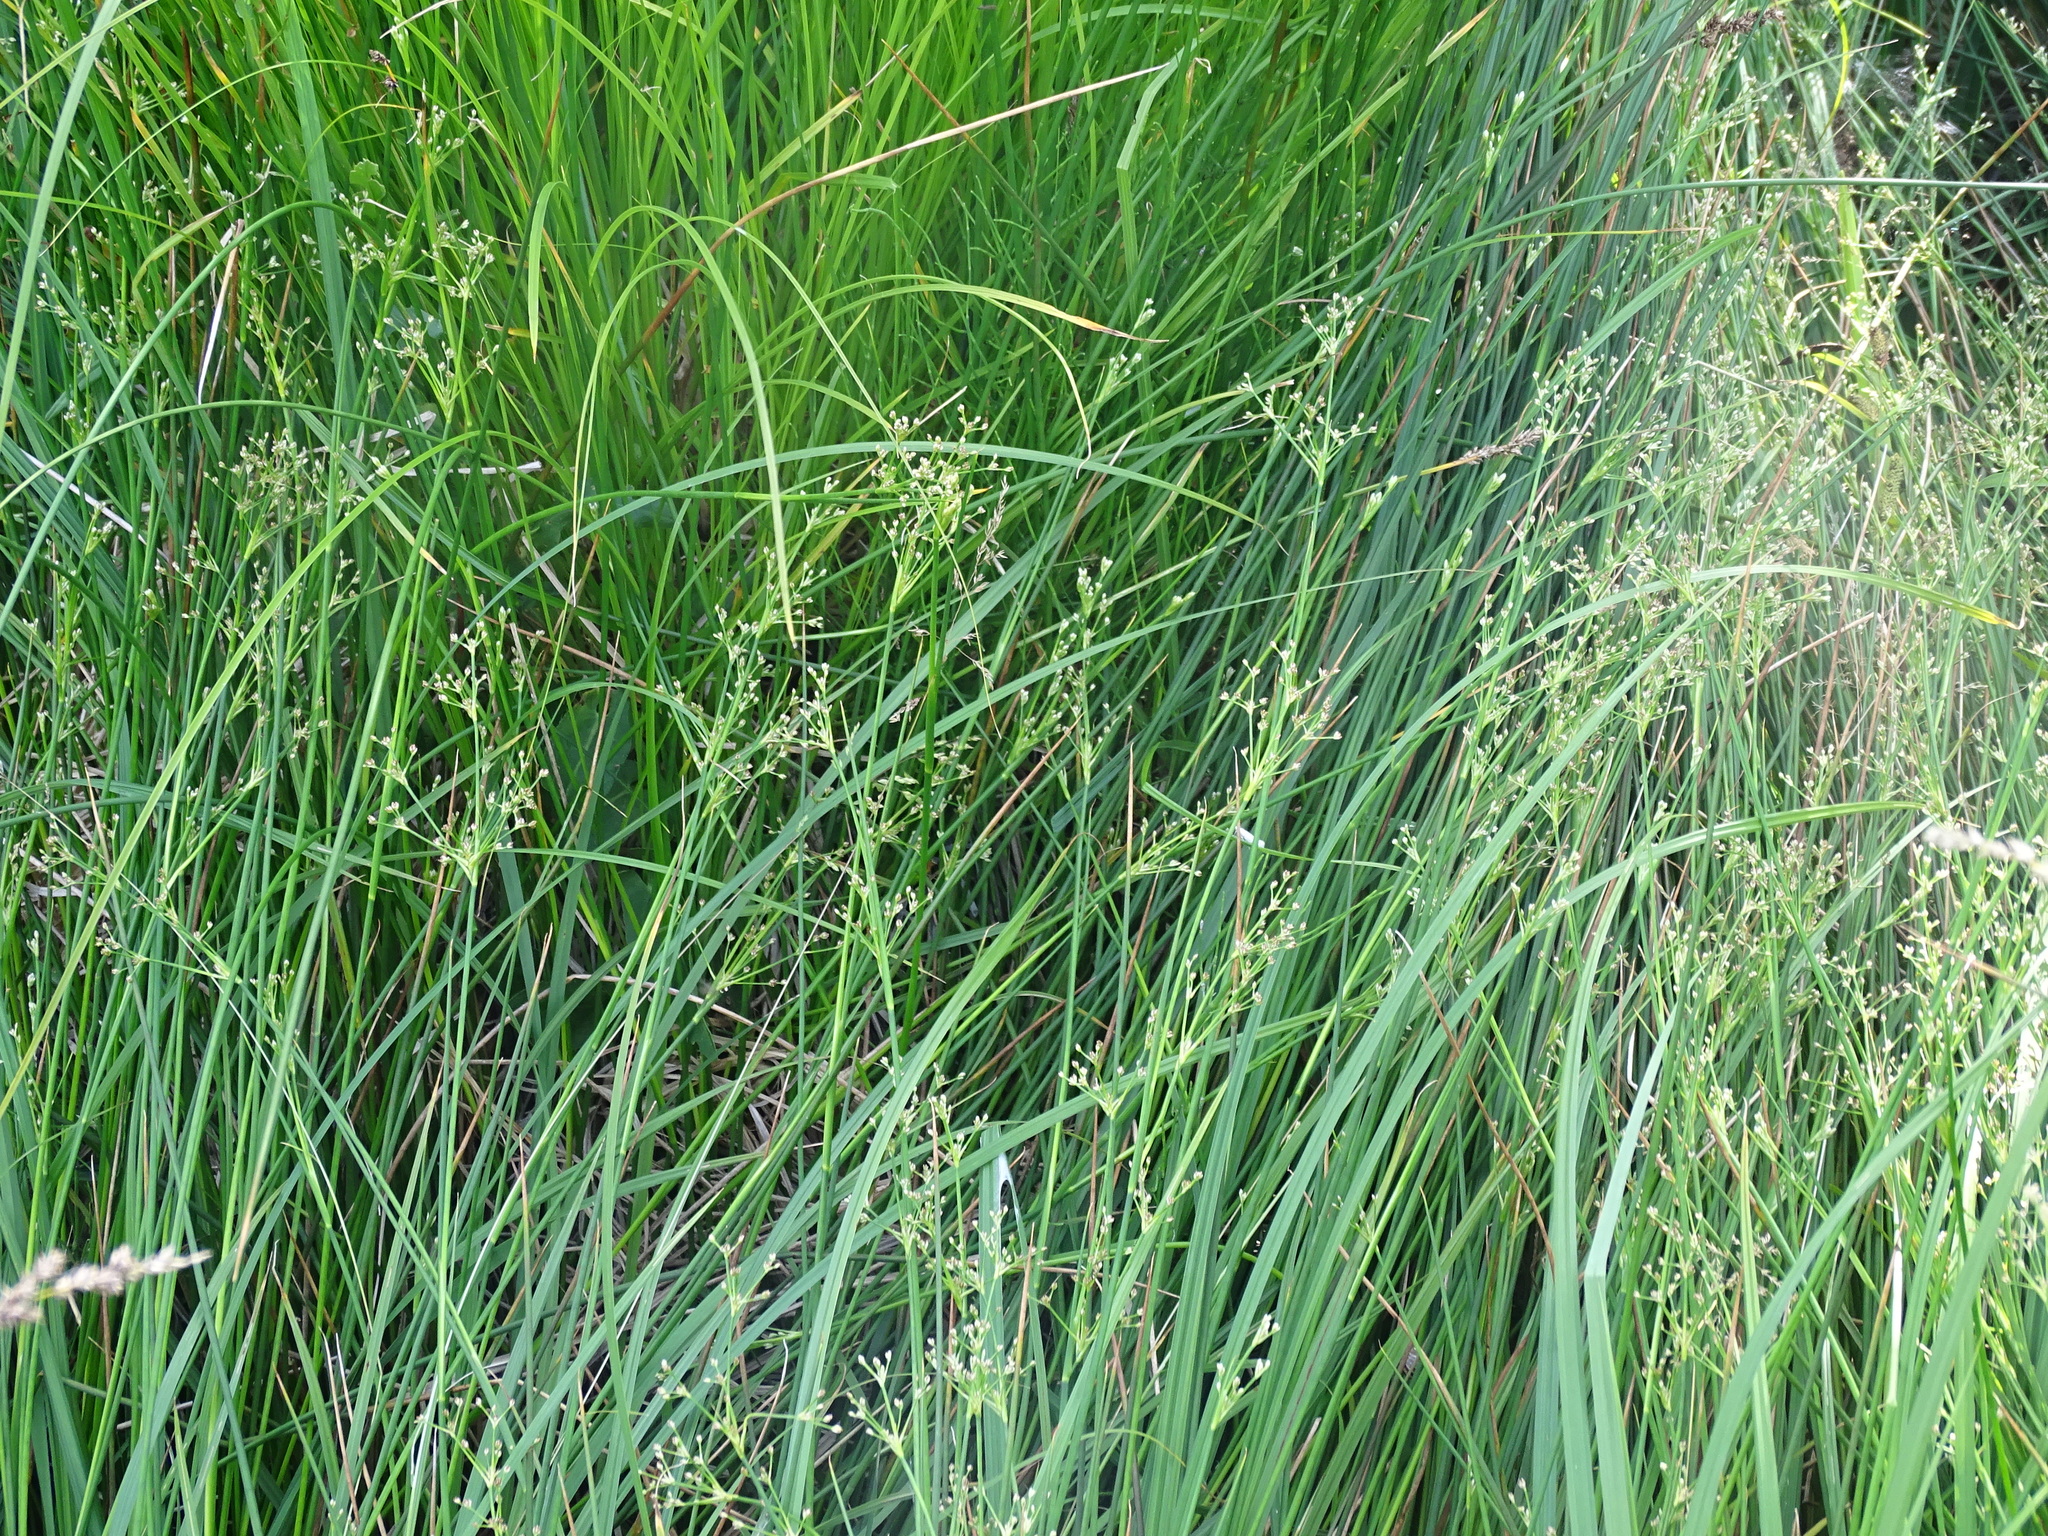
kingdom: Plantae
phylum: Tracheophyta
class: Liliopsida
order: Poales
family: Juncaceae
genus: Juncus
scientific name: Juncus subnodulosus
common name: Blunt-flowered rush
